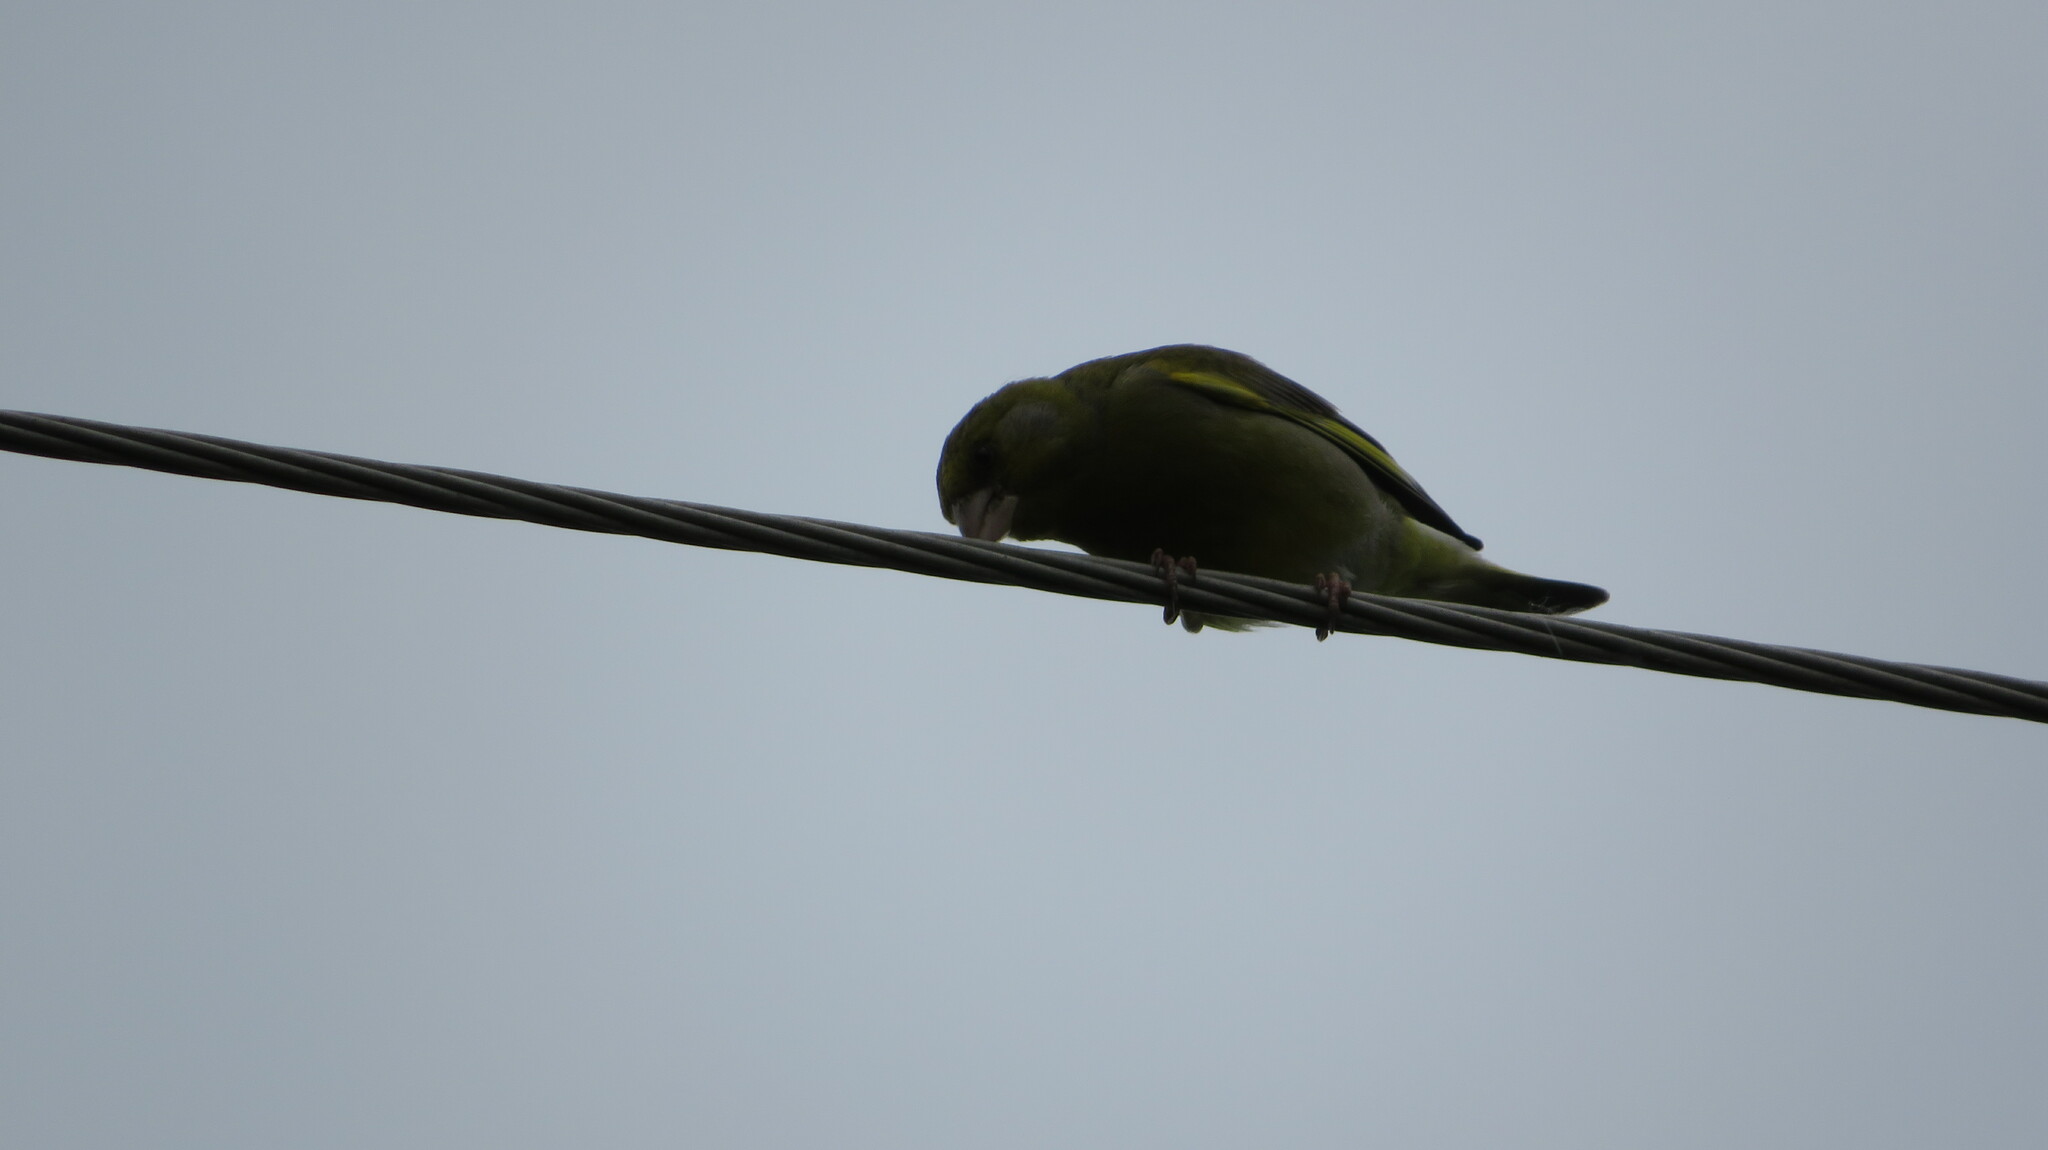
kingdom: Plantae
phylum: Tracheophyta
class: Liliopsida
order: Poales
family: Poaceae
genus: Chloris
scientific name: Chloris chloris
